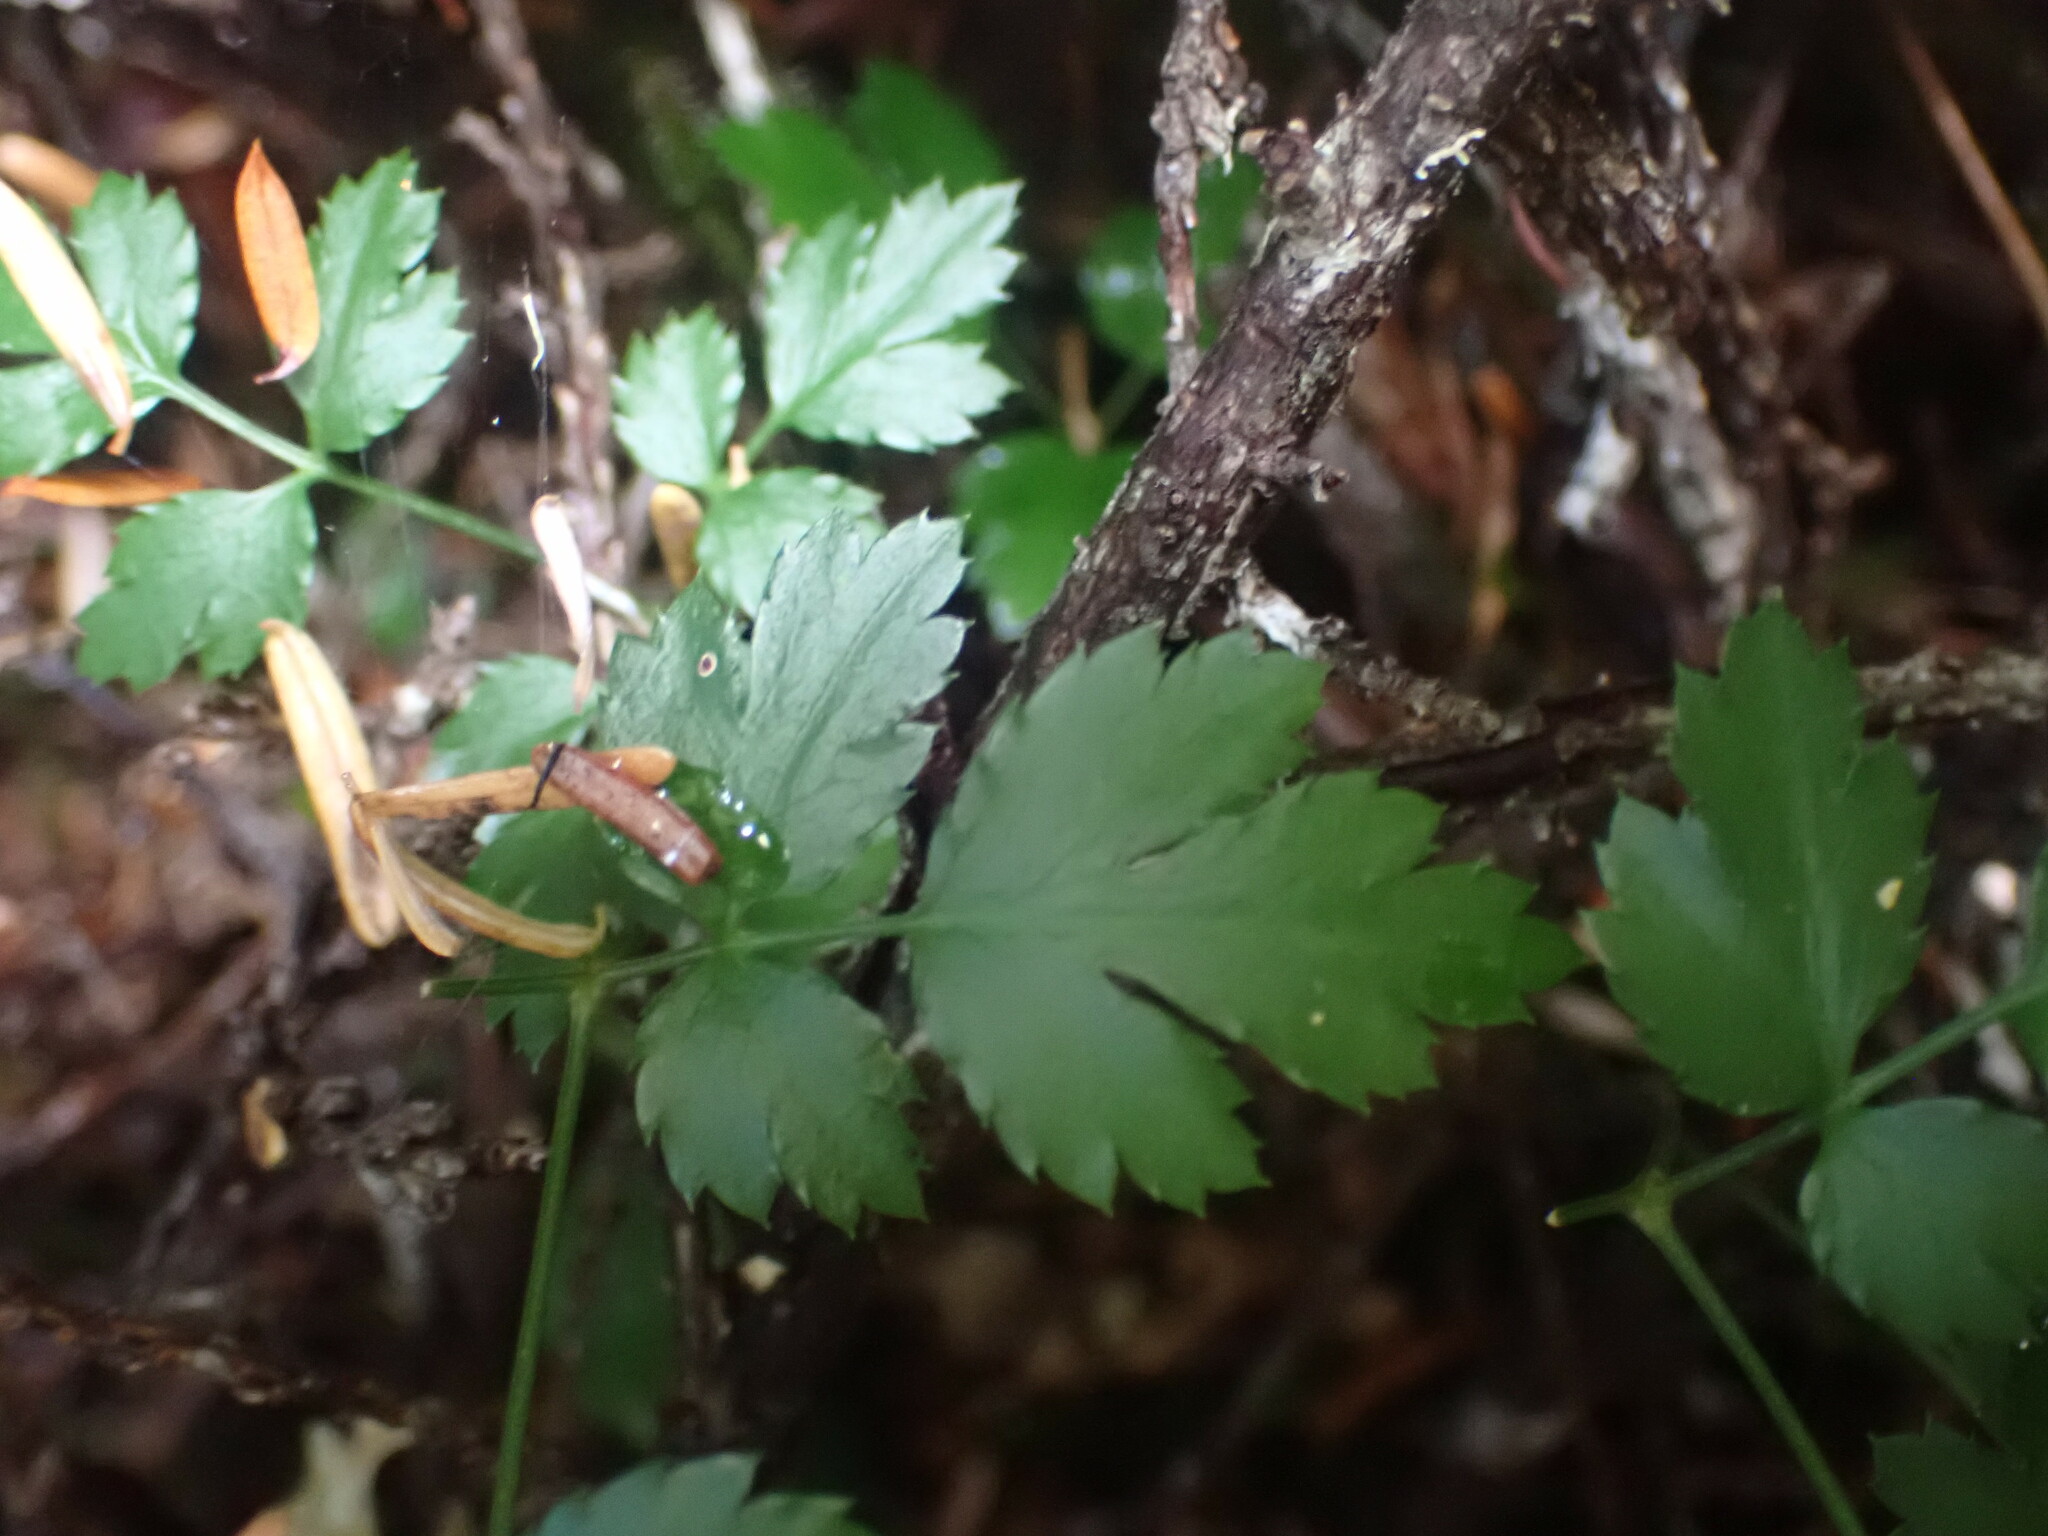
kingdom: Plantae
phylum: Tracheophyta
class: Magnoliopsida
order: Ranunculales
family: Ranunculaceae
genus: Coptis
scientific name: Coptis aspleniifolia
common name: Fern-leaved goldthread
